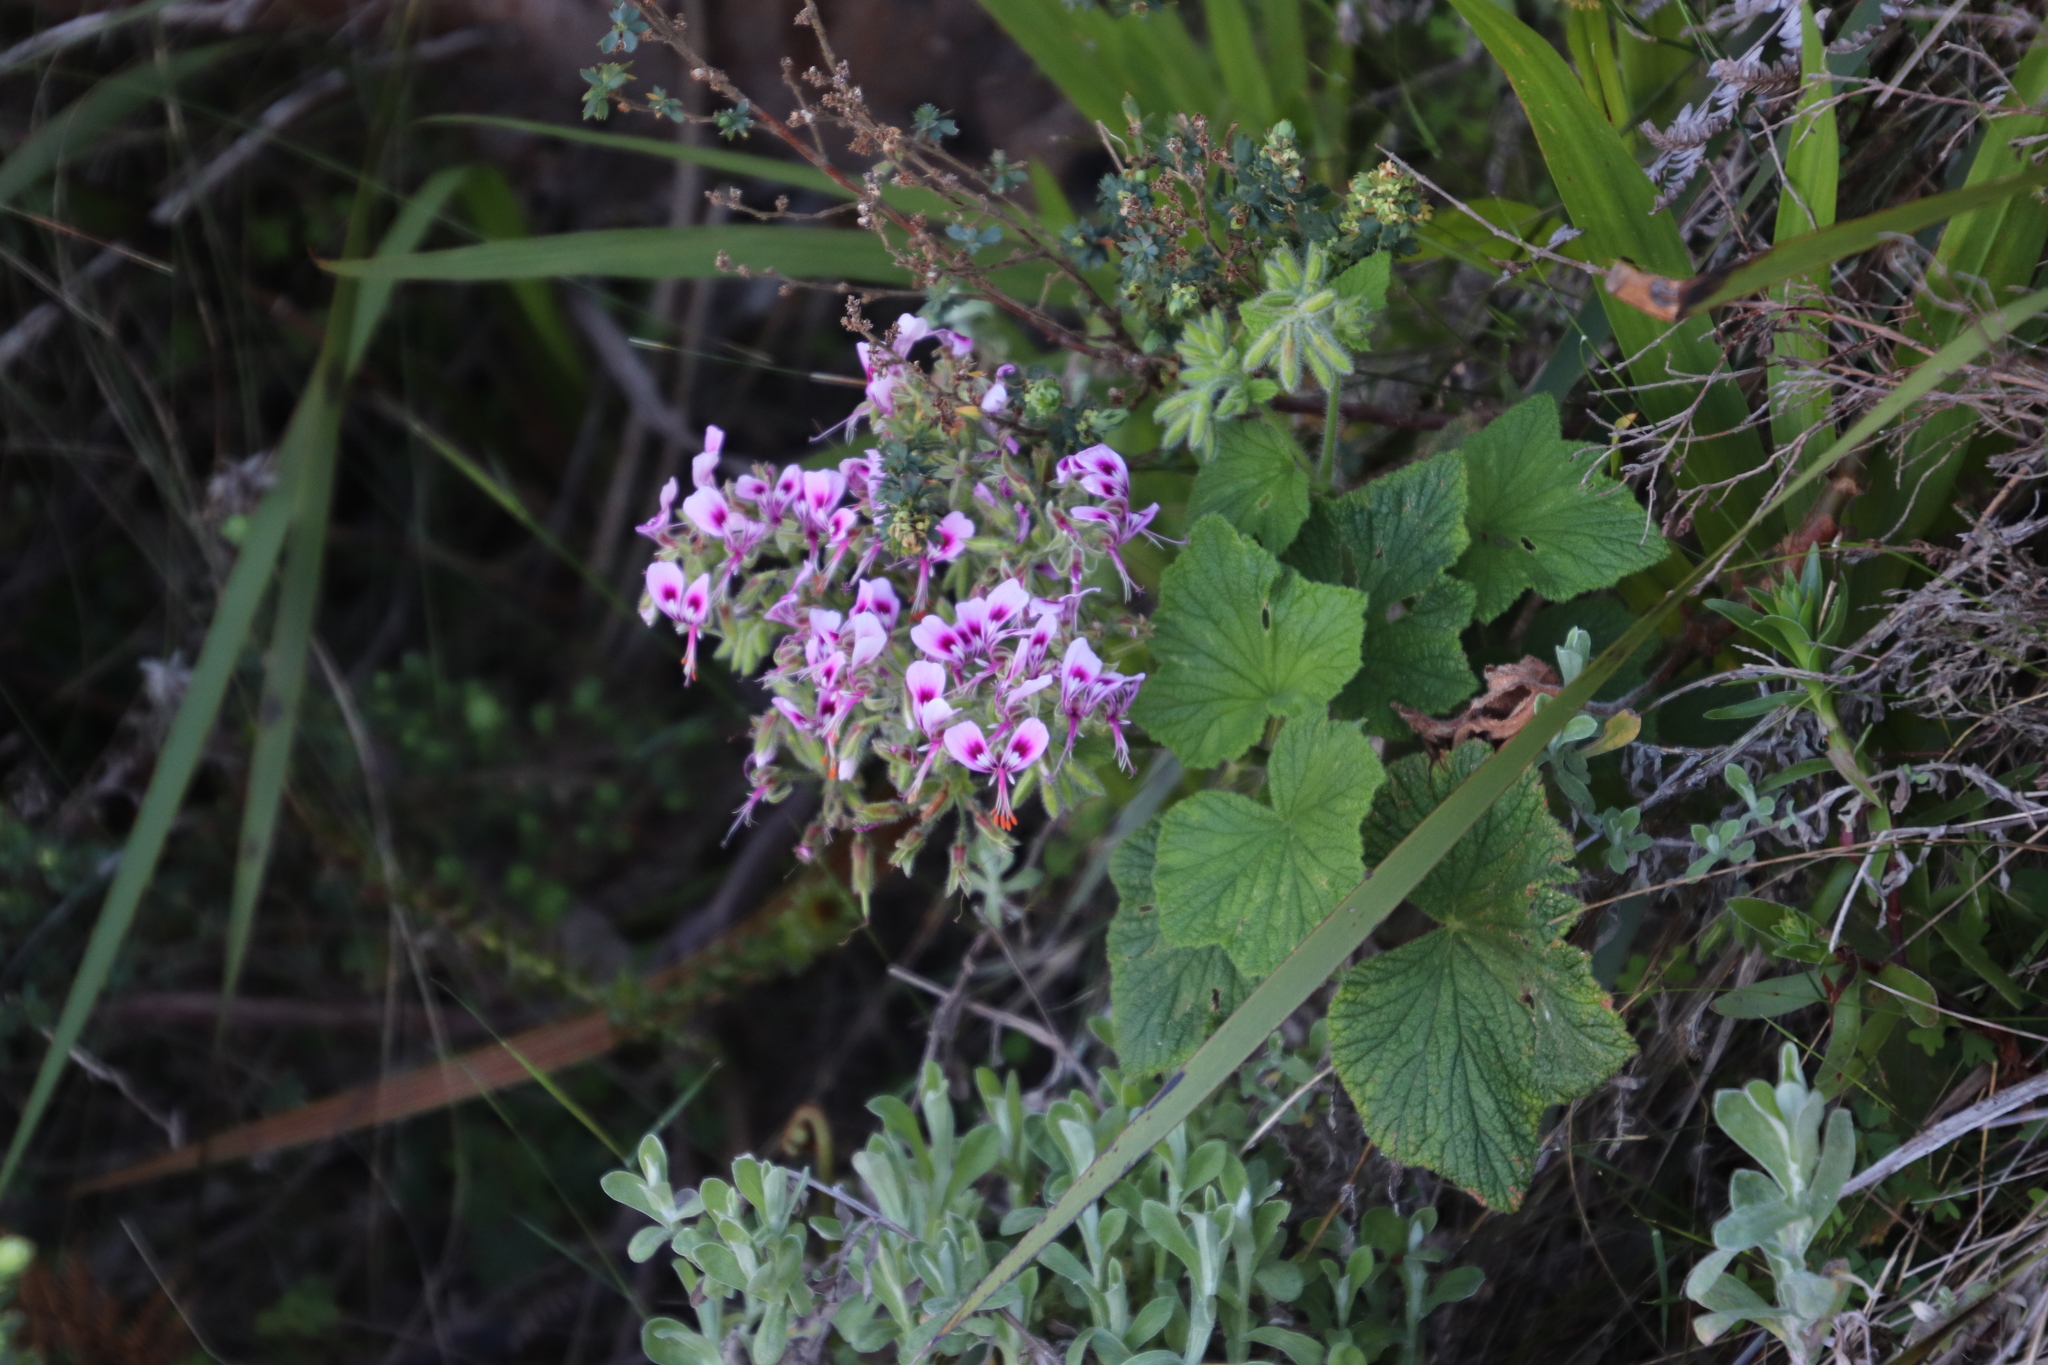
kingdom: Plantae
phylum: Tracheophyta
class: Magnoliopsida
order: Geraniales
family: Geraniaceae
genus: Pelargonium
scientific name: Pelargonium papilionaceum
